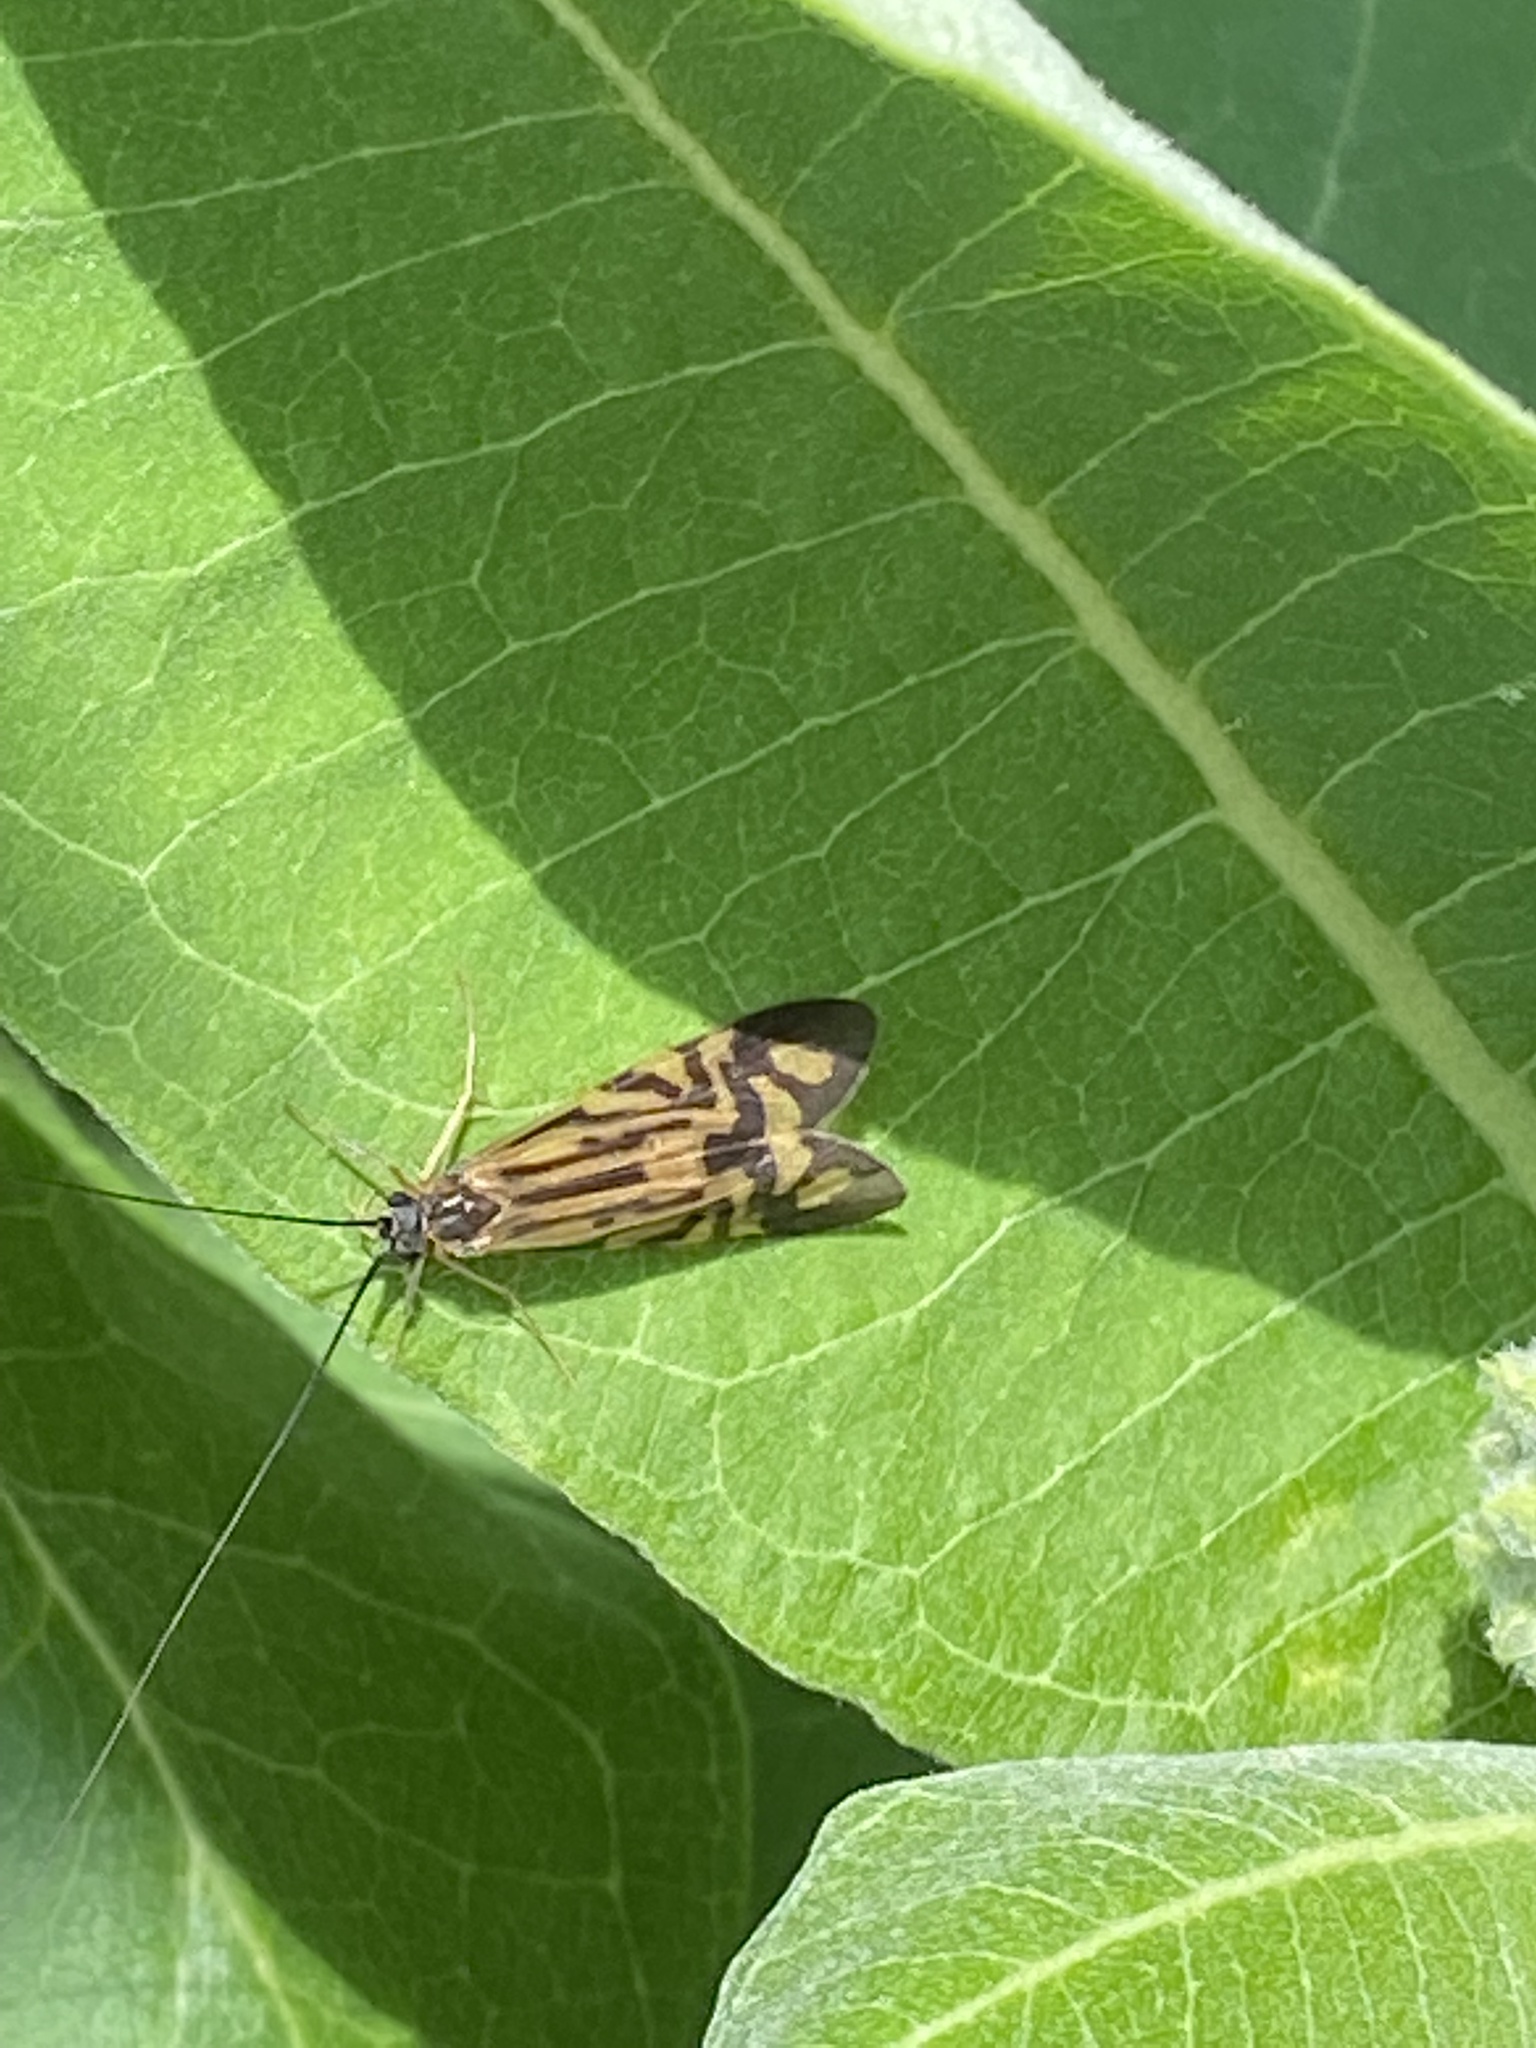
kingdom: Animalia
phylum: Arthropoda
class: Insecta
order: Trichoptera
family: Hydropsychidae
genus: Macrostemum
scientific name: Macrostemum zebratum
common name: Zebra caddisfly
